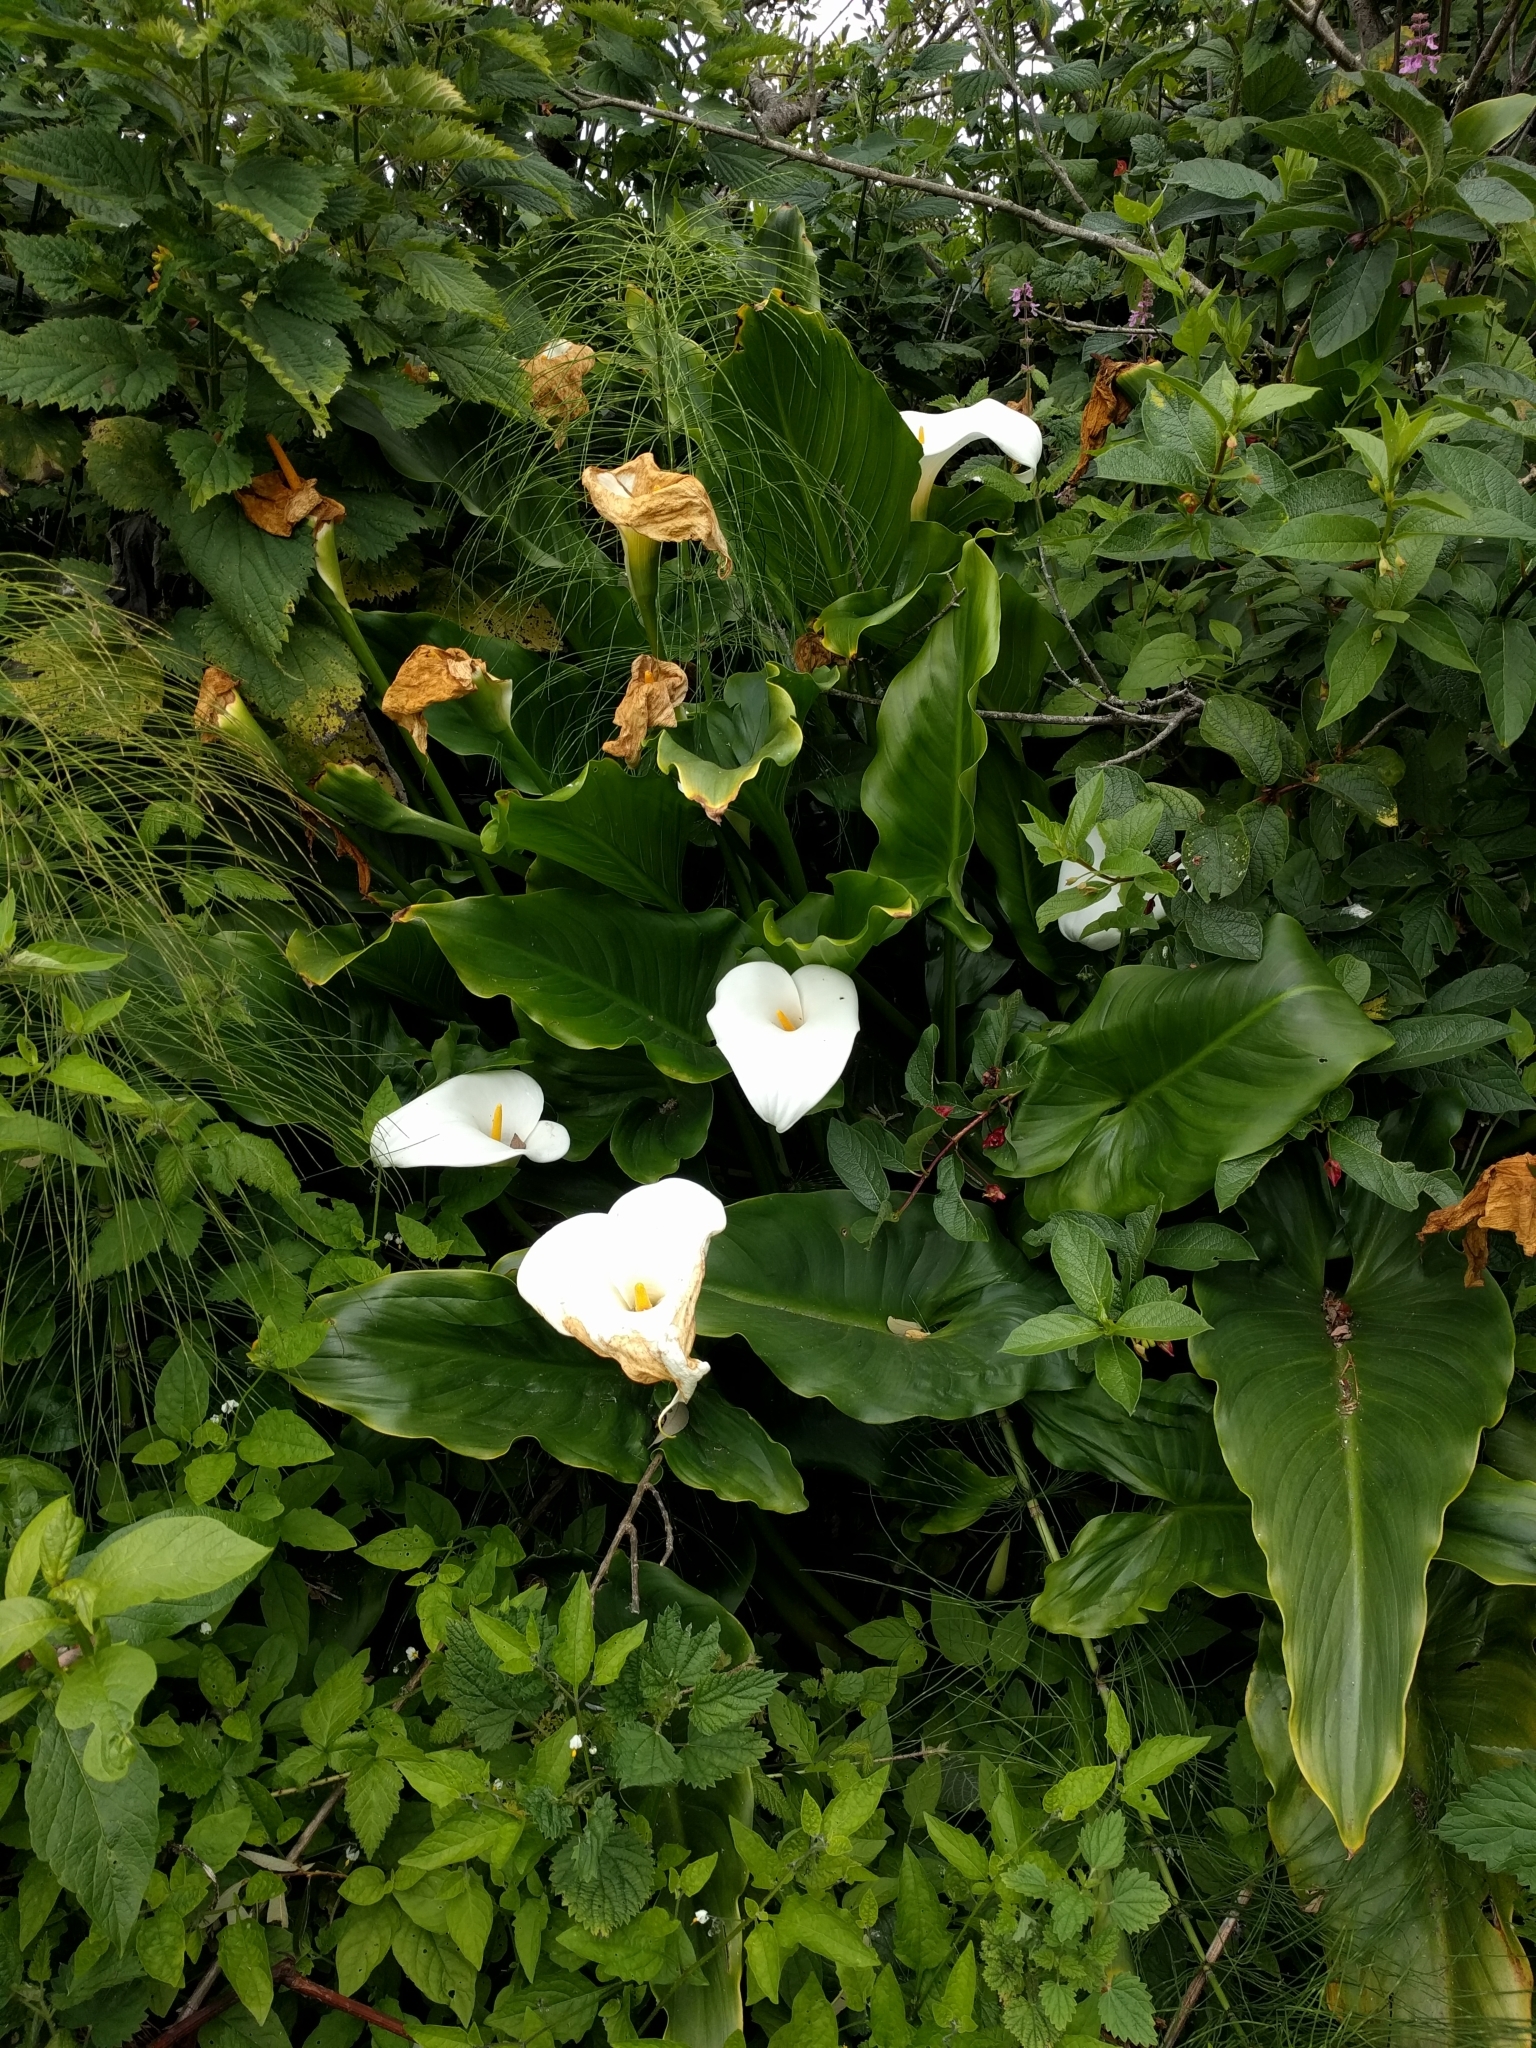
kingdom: Plantae
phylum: Tracheophyta
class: Liliopsida
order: Alismatales
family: Araceae
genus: Zantedeschia
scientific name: Zantedeschia aethiopica
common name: Altar-lily
